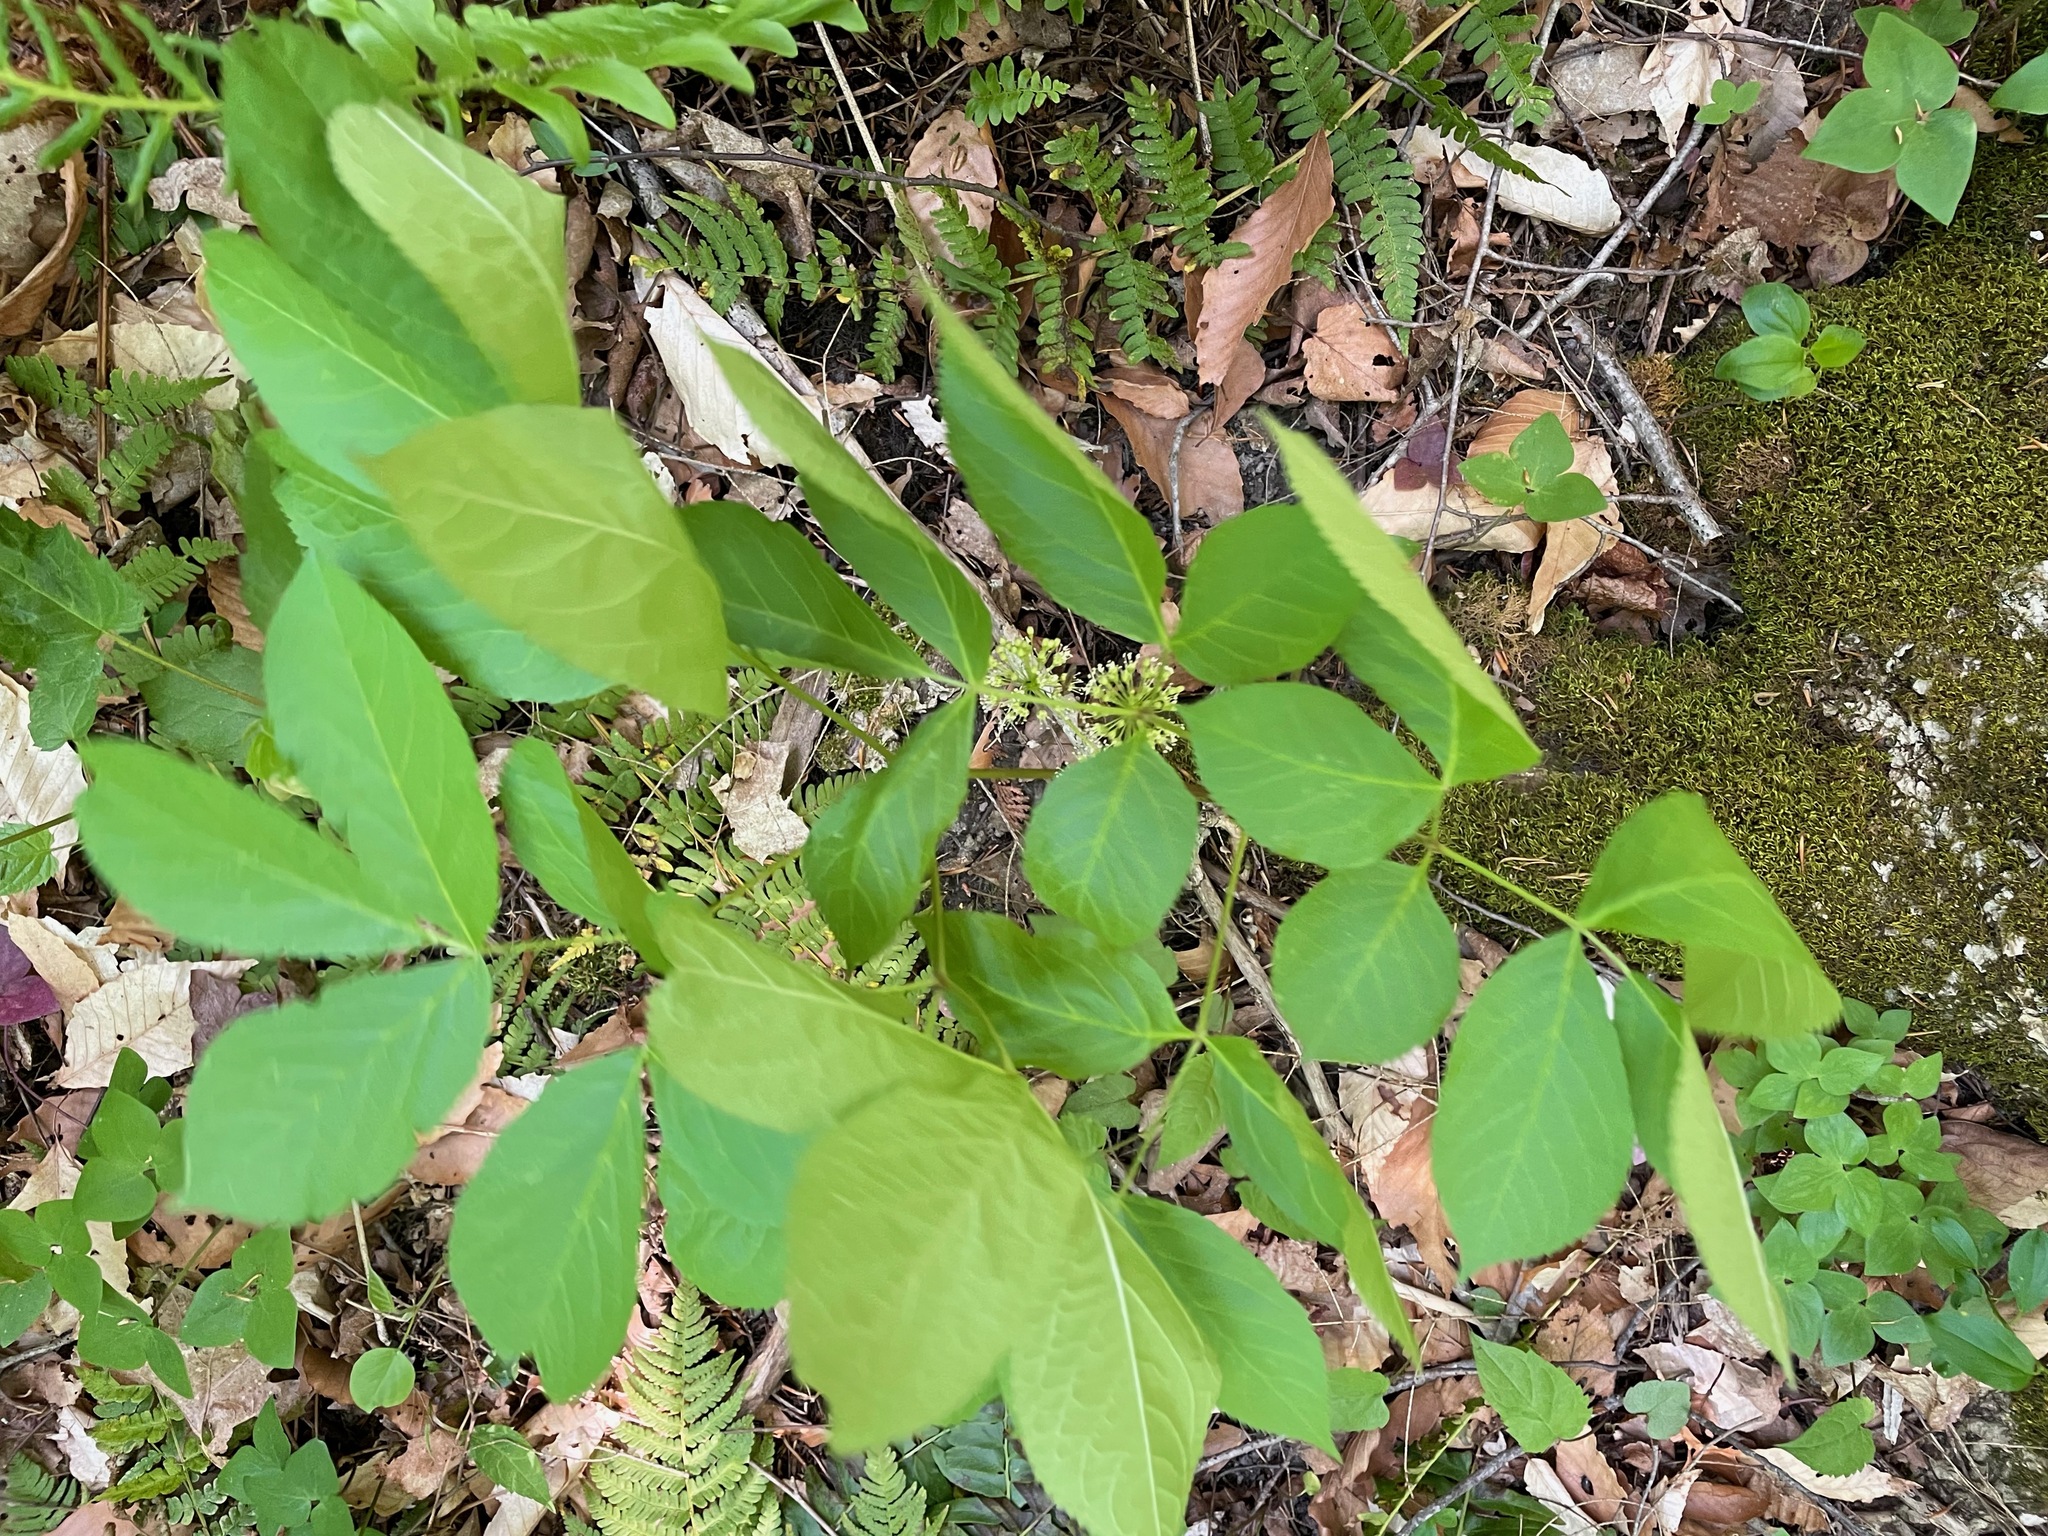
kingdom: Plantae
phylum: Tracheophyta
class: Magnoliopsida
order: Apiales
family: Araliaceae
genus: Aralia
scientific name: Aralia nudicaulis
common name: Wild sarsaparilla
